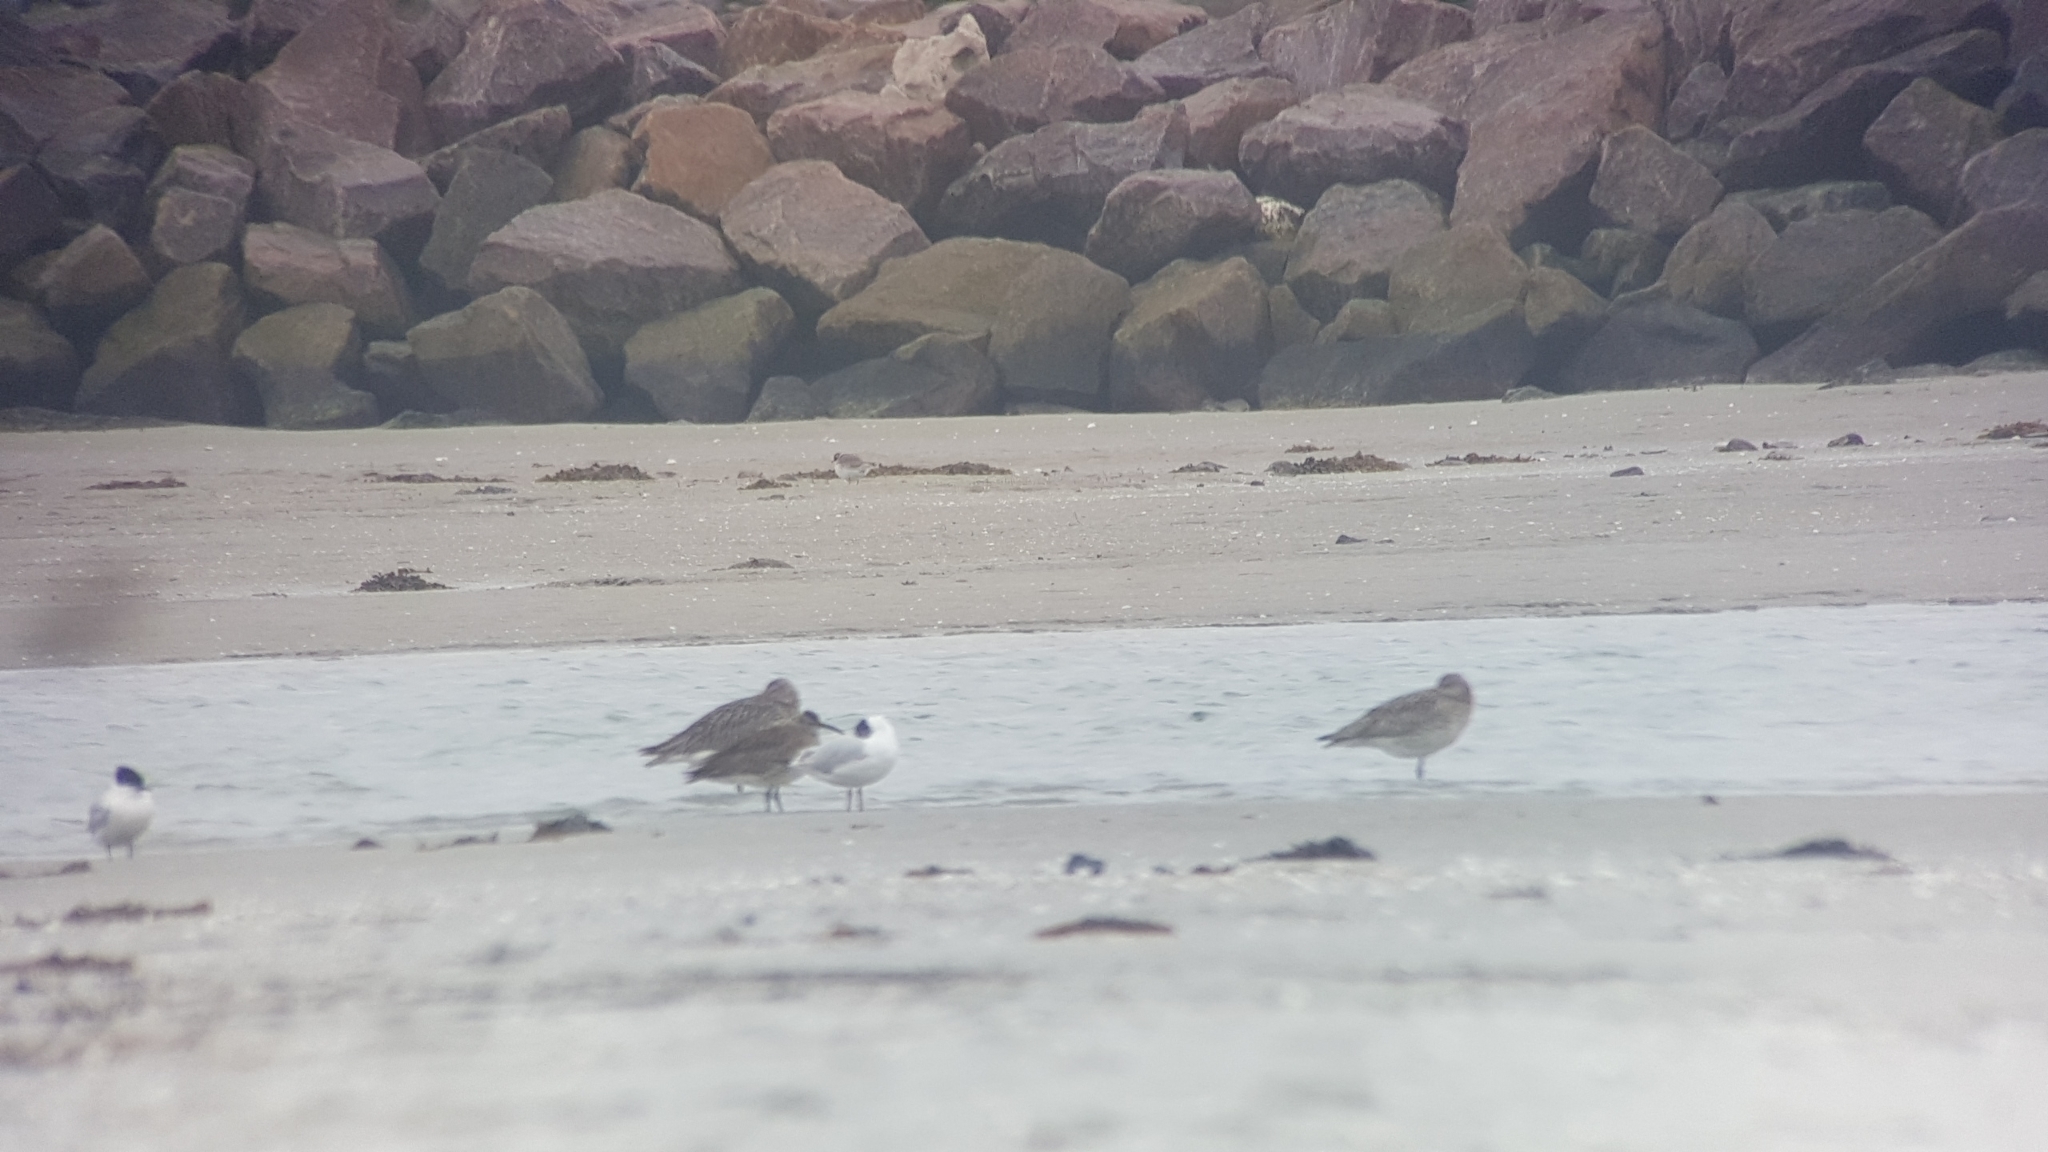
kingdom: Animalia
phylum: Chordata
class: Aves
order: Charadriiformes
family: Scolopacidae
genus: Numenius
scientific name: Numenius arquata
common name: Eurasian curlew
